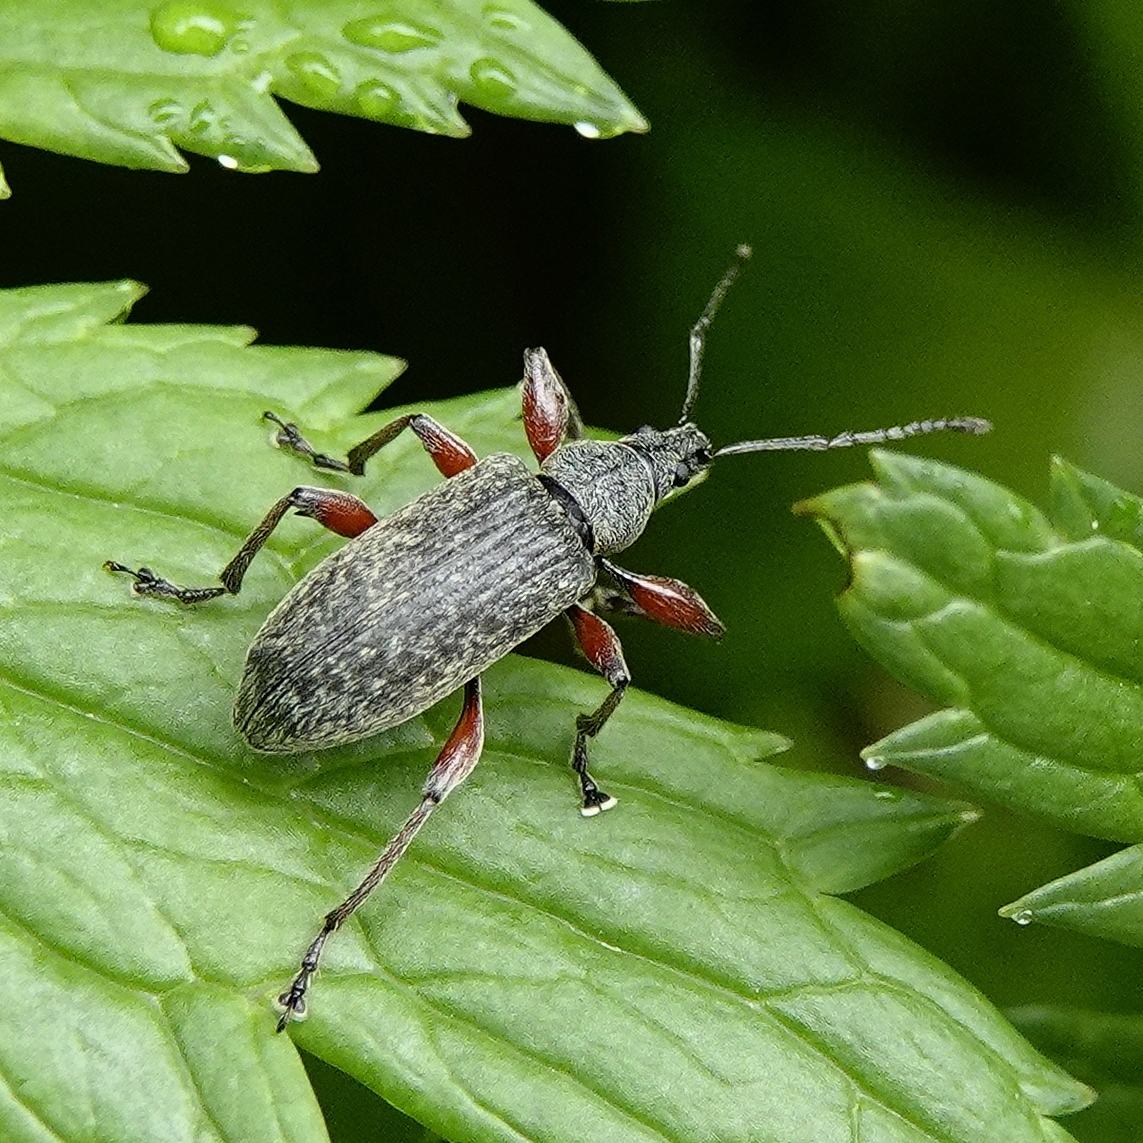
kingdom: Animalia
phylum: Arthropoda
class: Insecta
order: Coleoptera
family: Curculionidae
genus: Phyllobius
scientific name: Phyllobius glaucus
